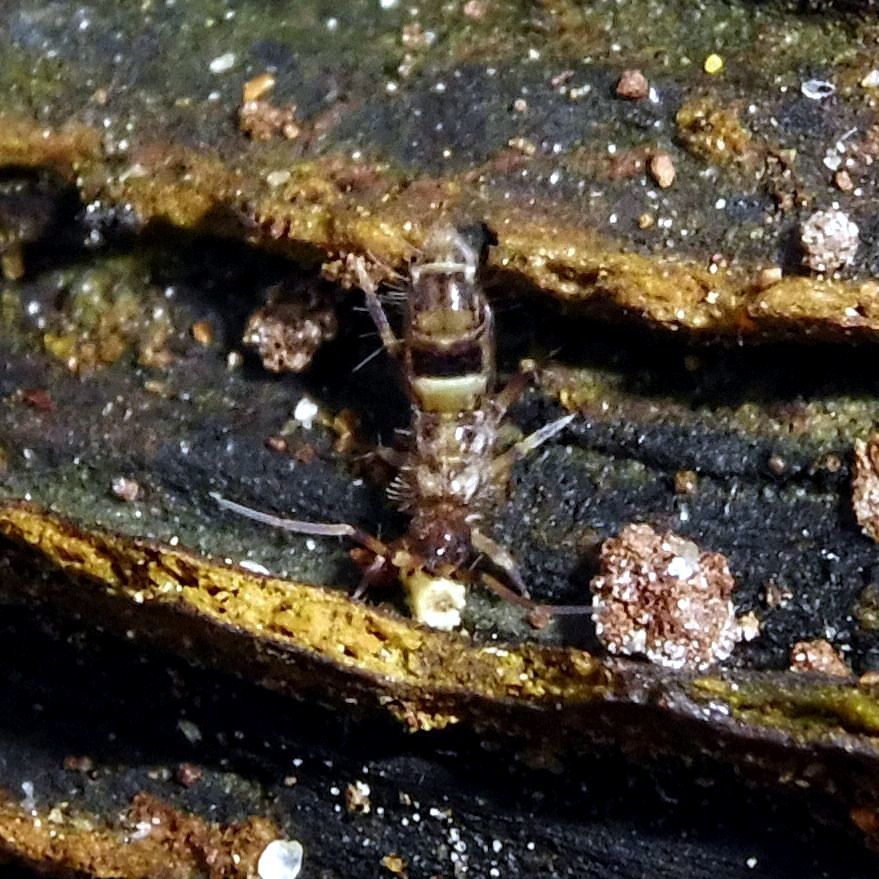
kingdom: Animalia
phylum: Arthropoda
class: Collembola
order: Entomobryomorpha
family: Orchesellidae
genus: Orchesella
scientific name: Orchesella cincta
